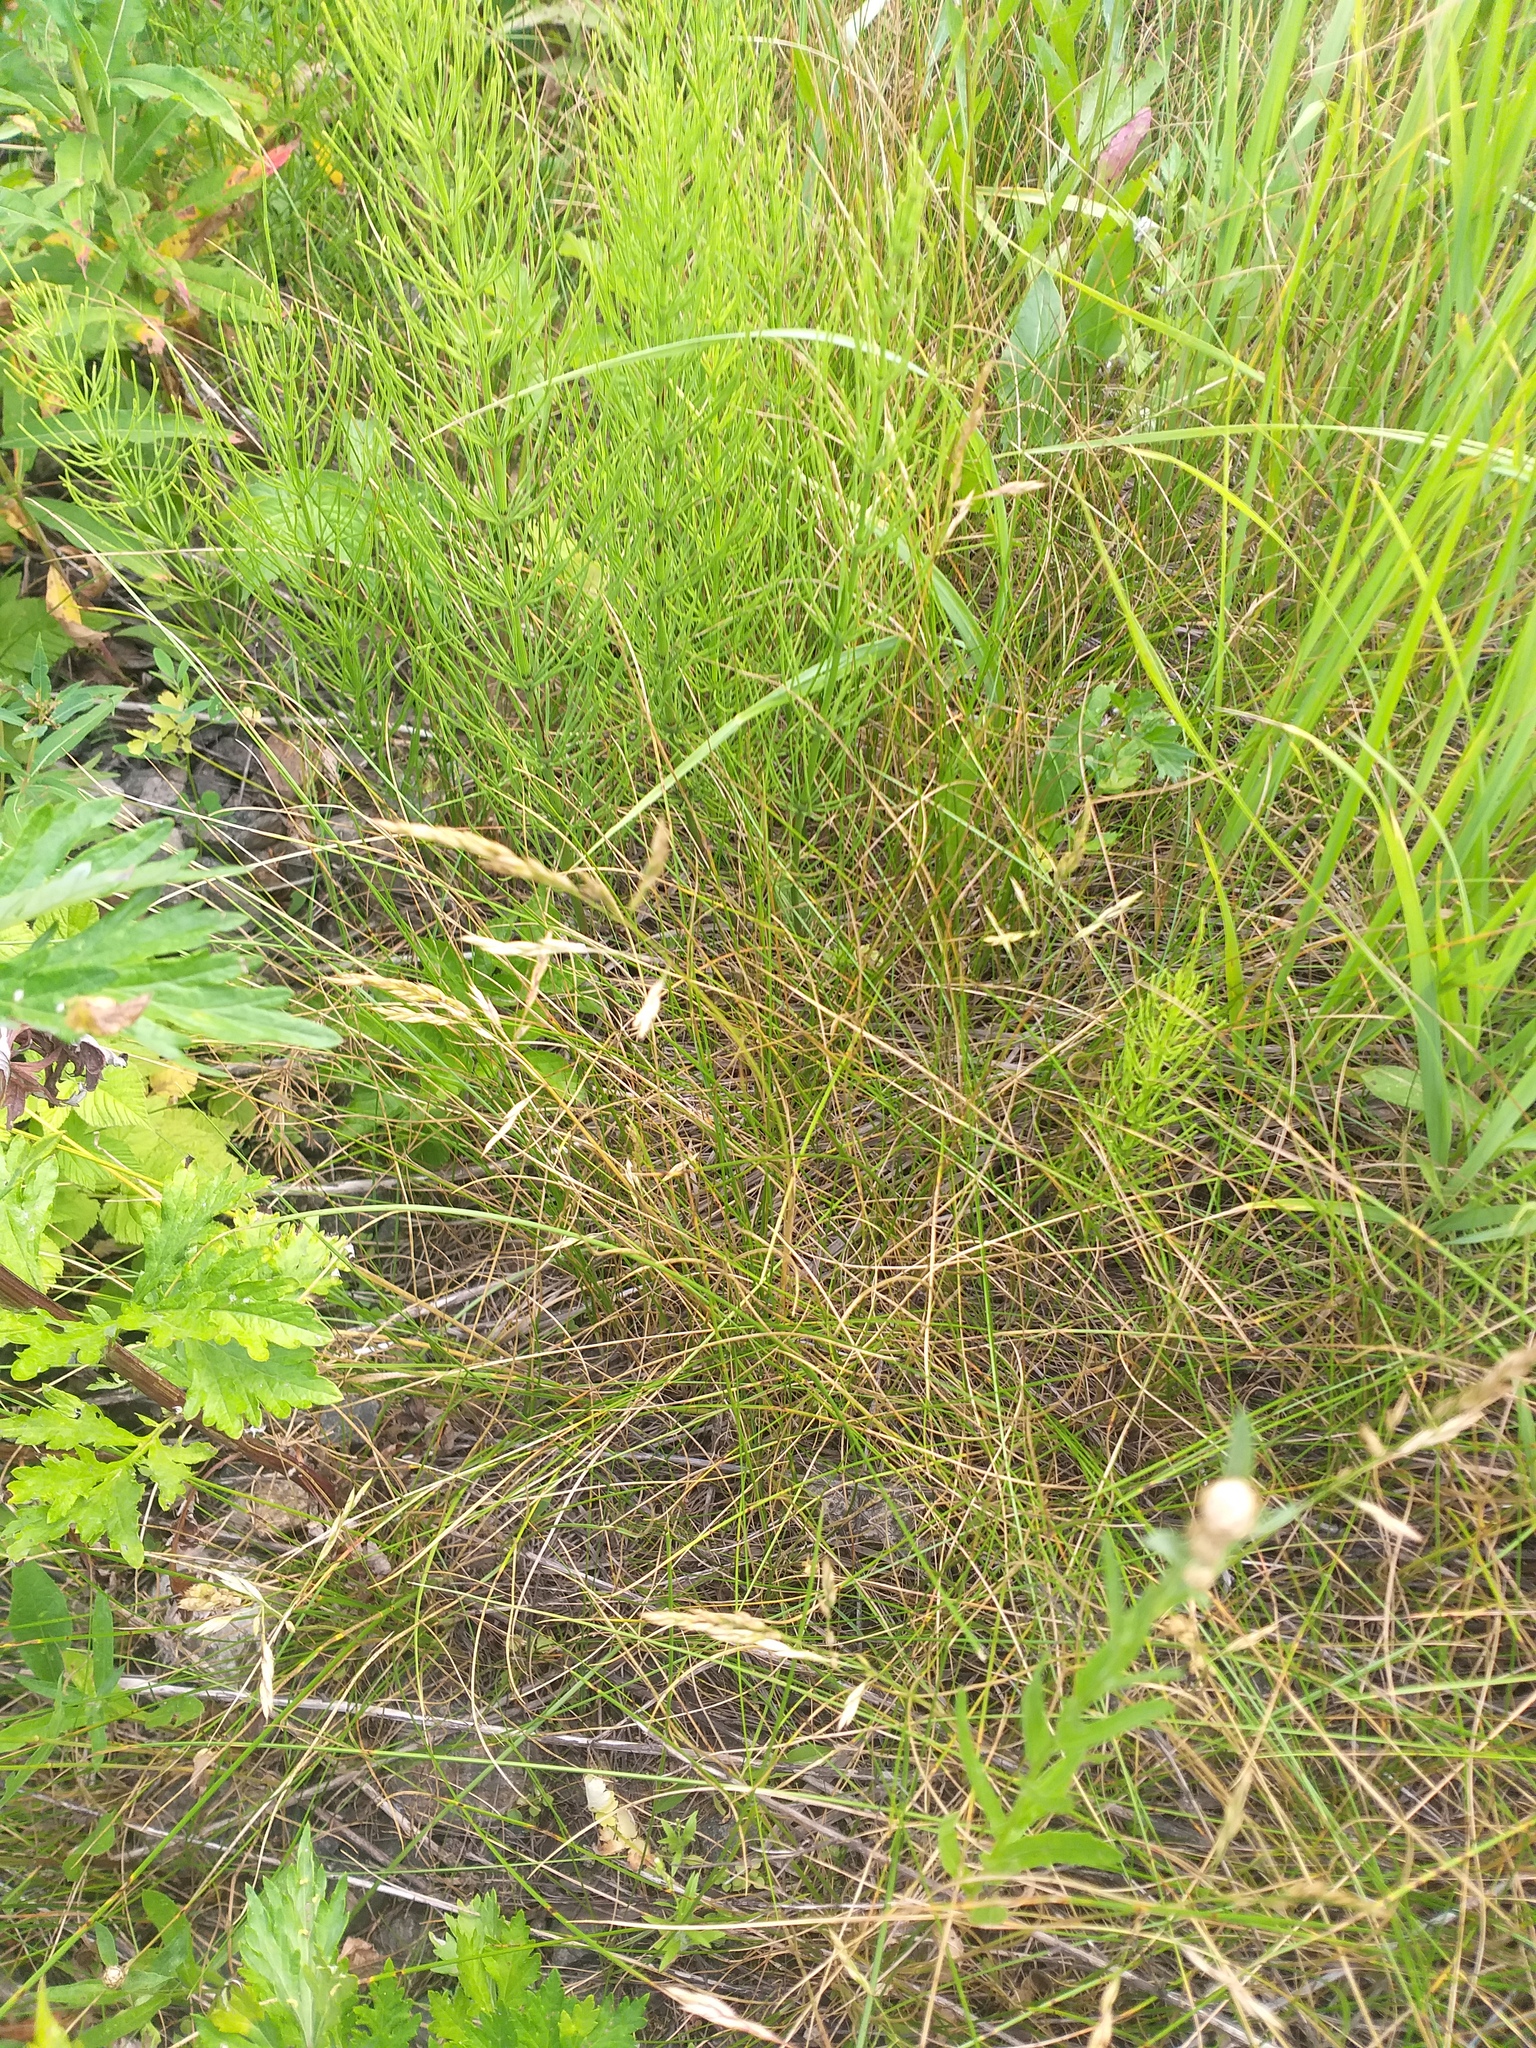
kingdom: Plantae
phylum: Tracheophyta
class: Liliopsida
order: Poales
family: Poaceae
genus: Festuca
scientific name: Festuca rubra
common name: Red fescue
